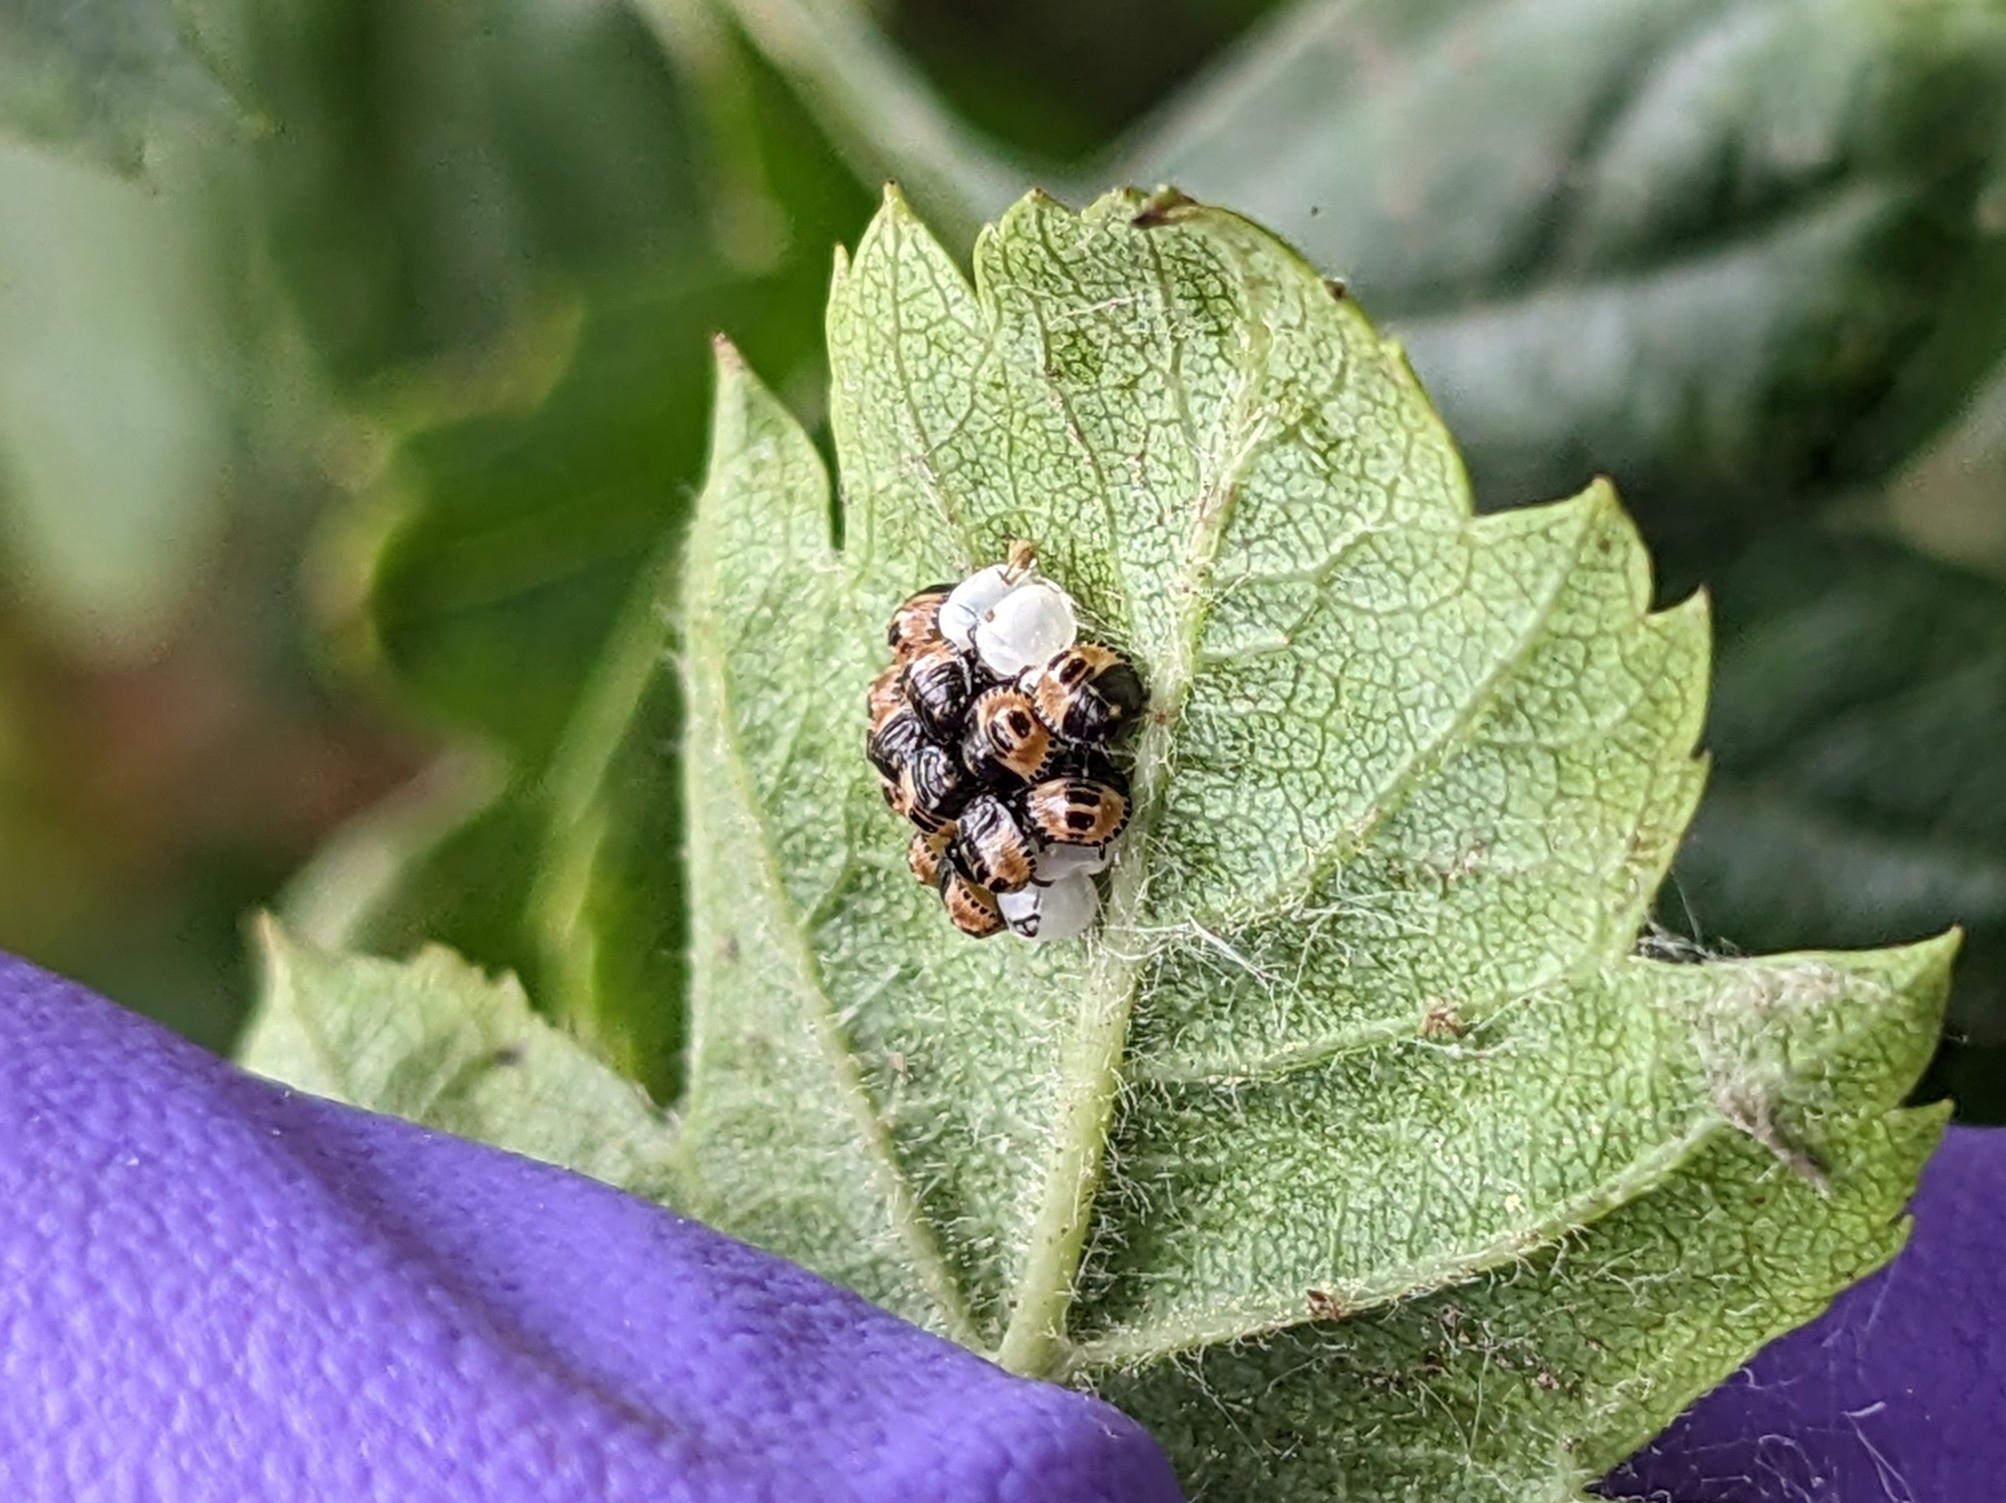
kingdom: Animalia
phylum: Arthropoda
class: Insecta
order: Hemiptera
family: Pentatomidae
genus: Palomena
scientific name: Palomena prasina
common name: Green shieldbug
